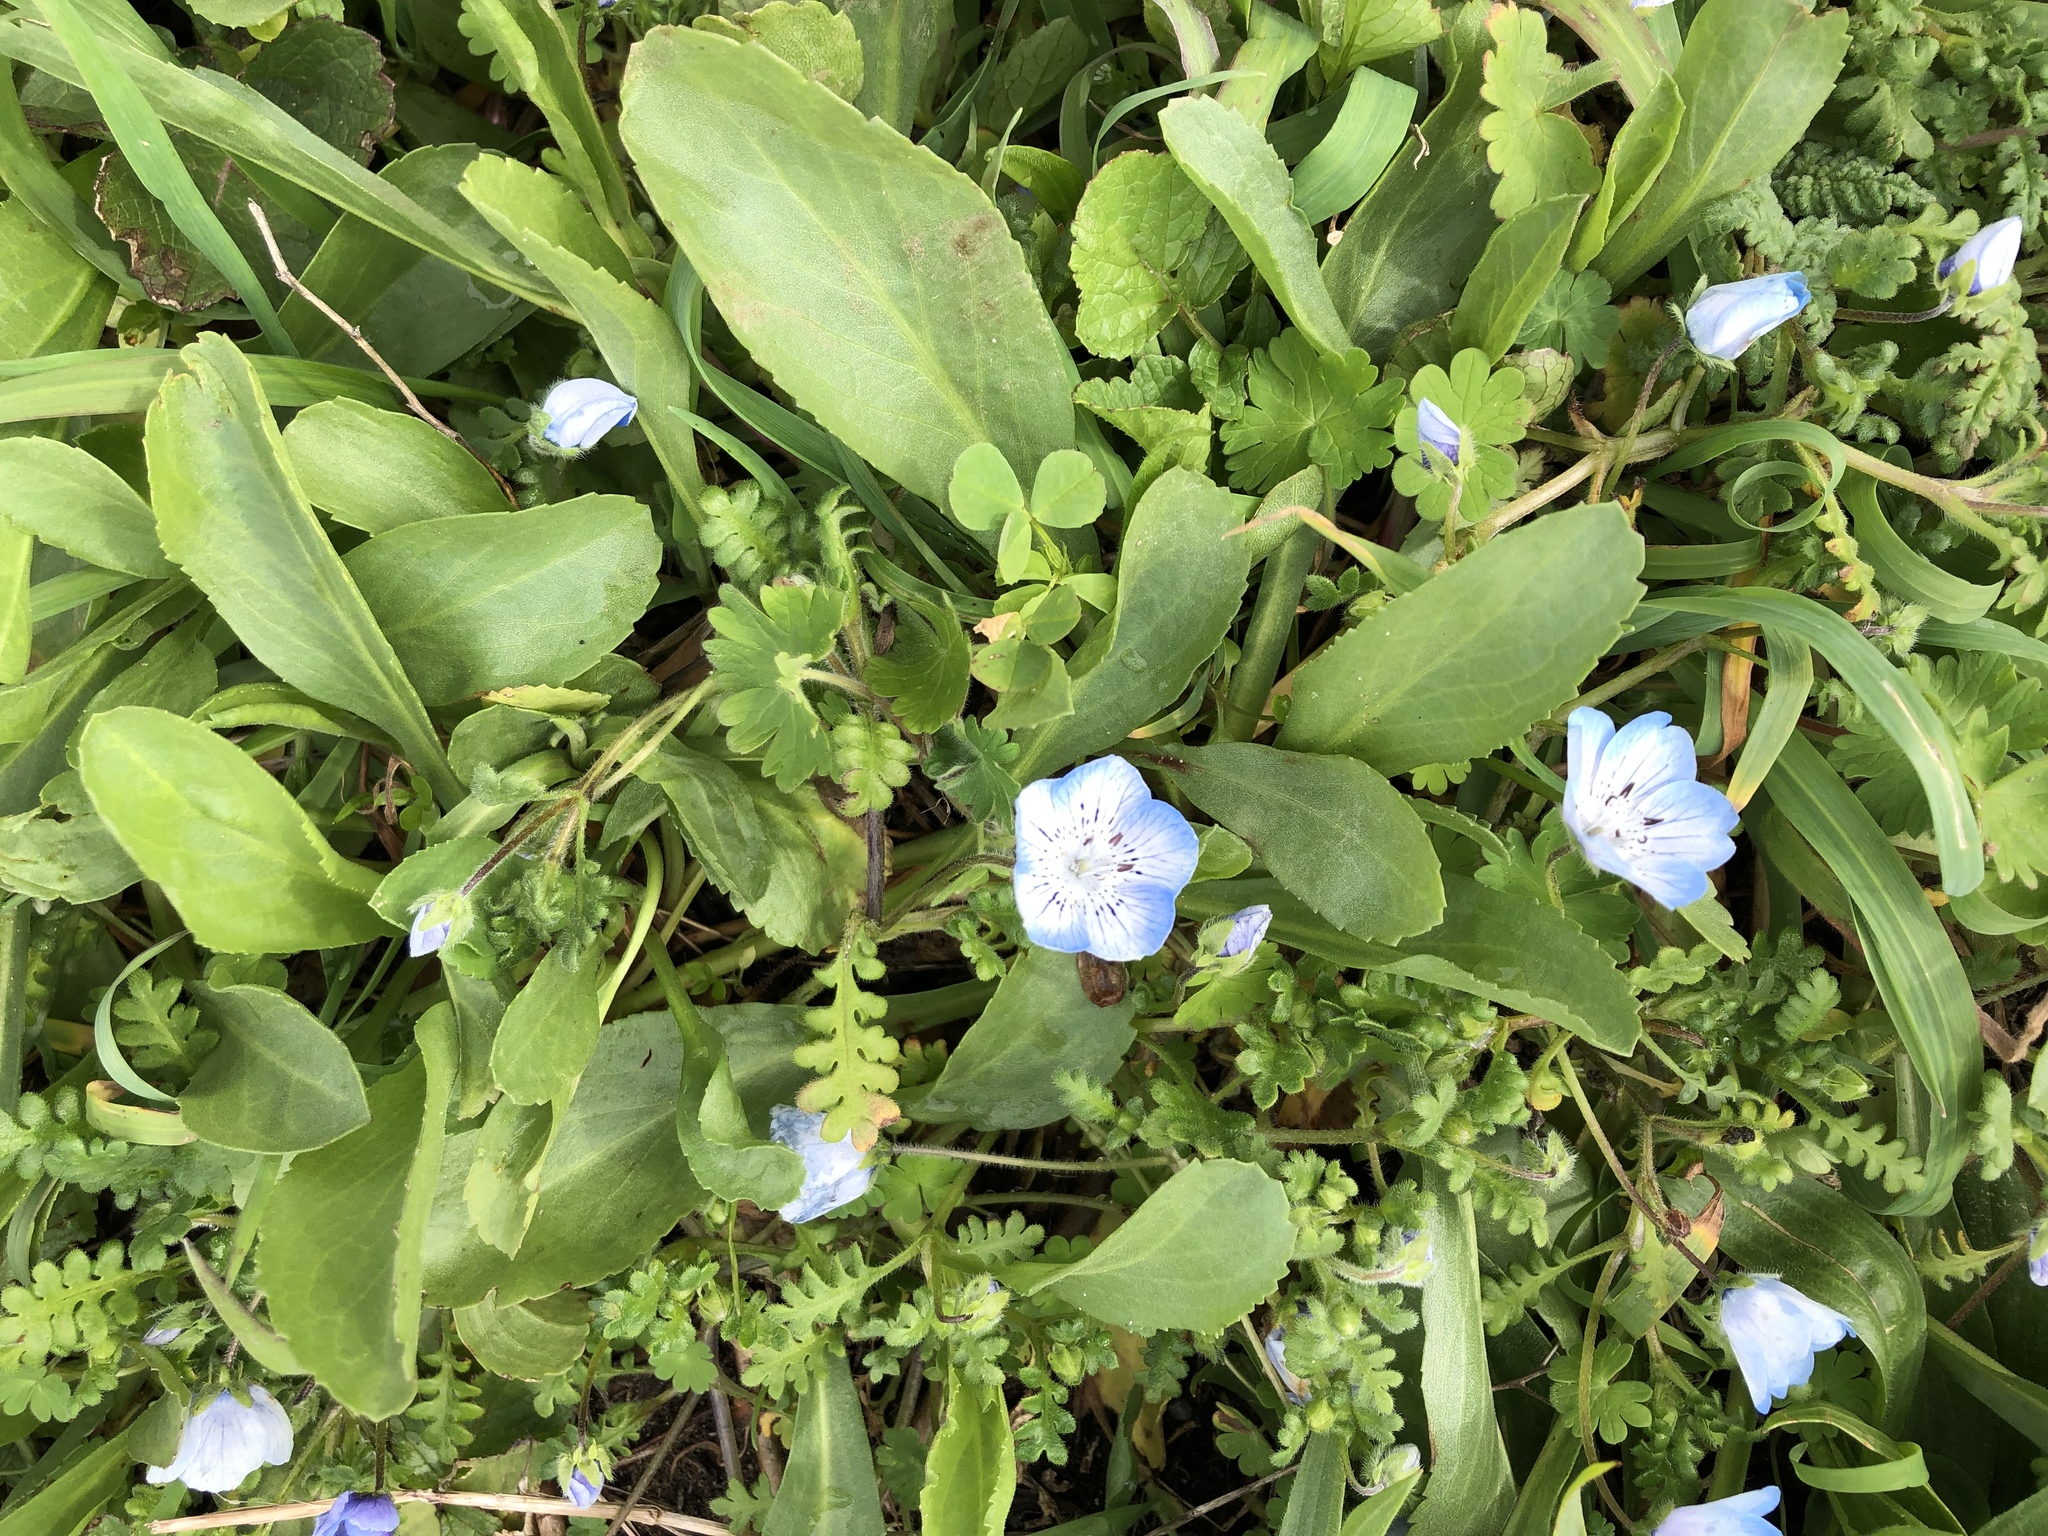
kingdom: Plantae
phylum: Tracheophyta
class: Magnoliopsida
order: Boraginales
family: Hydrophyllaceae
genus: Nemophila
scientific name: Nemophila menziesii
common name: Baby's-blue-eyes
